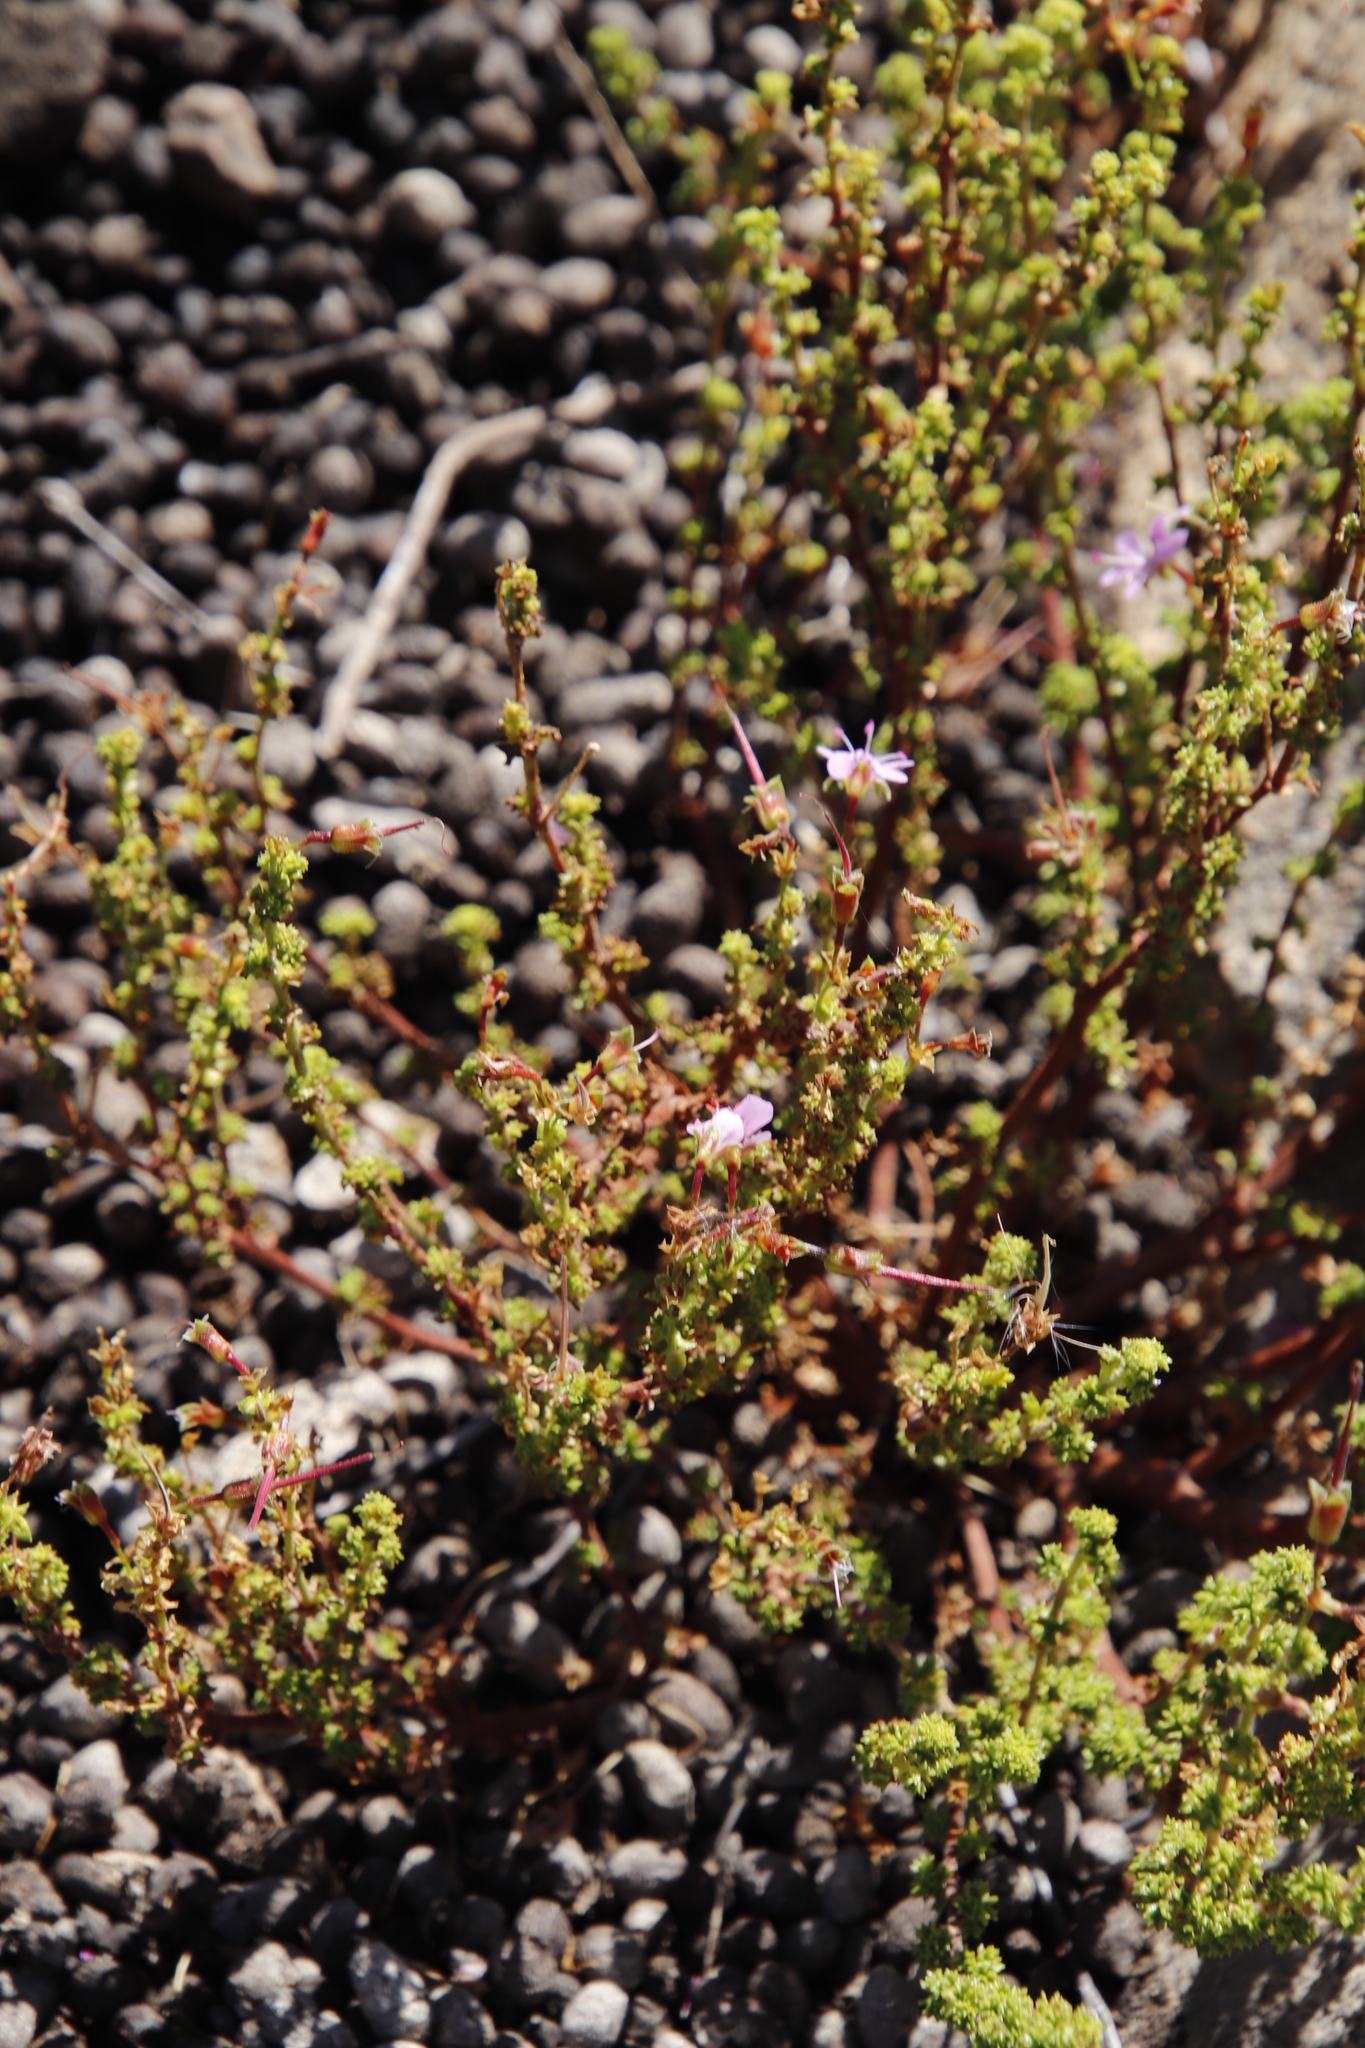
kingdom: Plantae
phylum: Tracheophyta
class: Magnoliopsida
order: Geraniales
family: Geraniaceae
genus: Pelargonium
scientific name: Pelargonium englerianum
